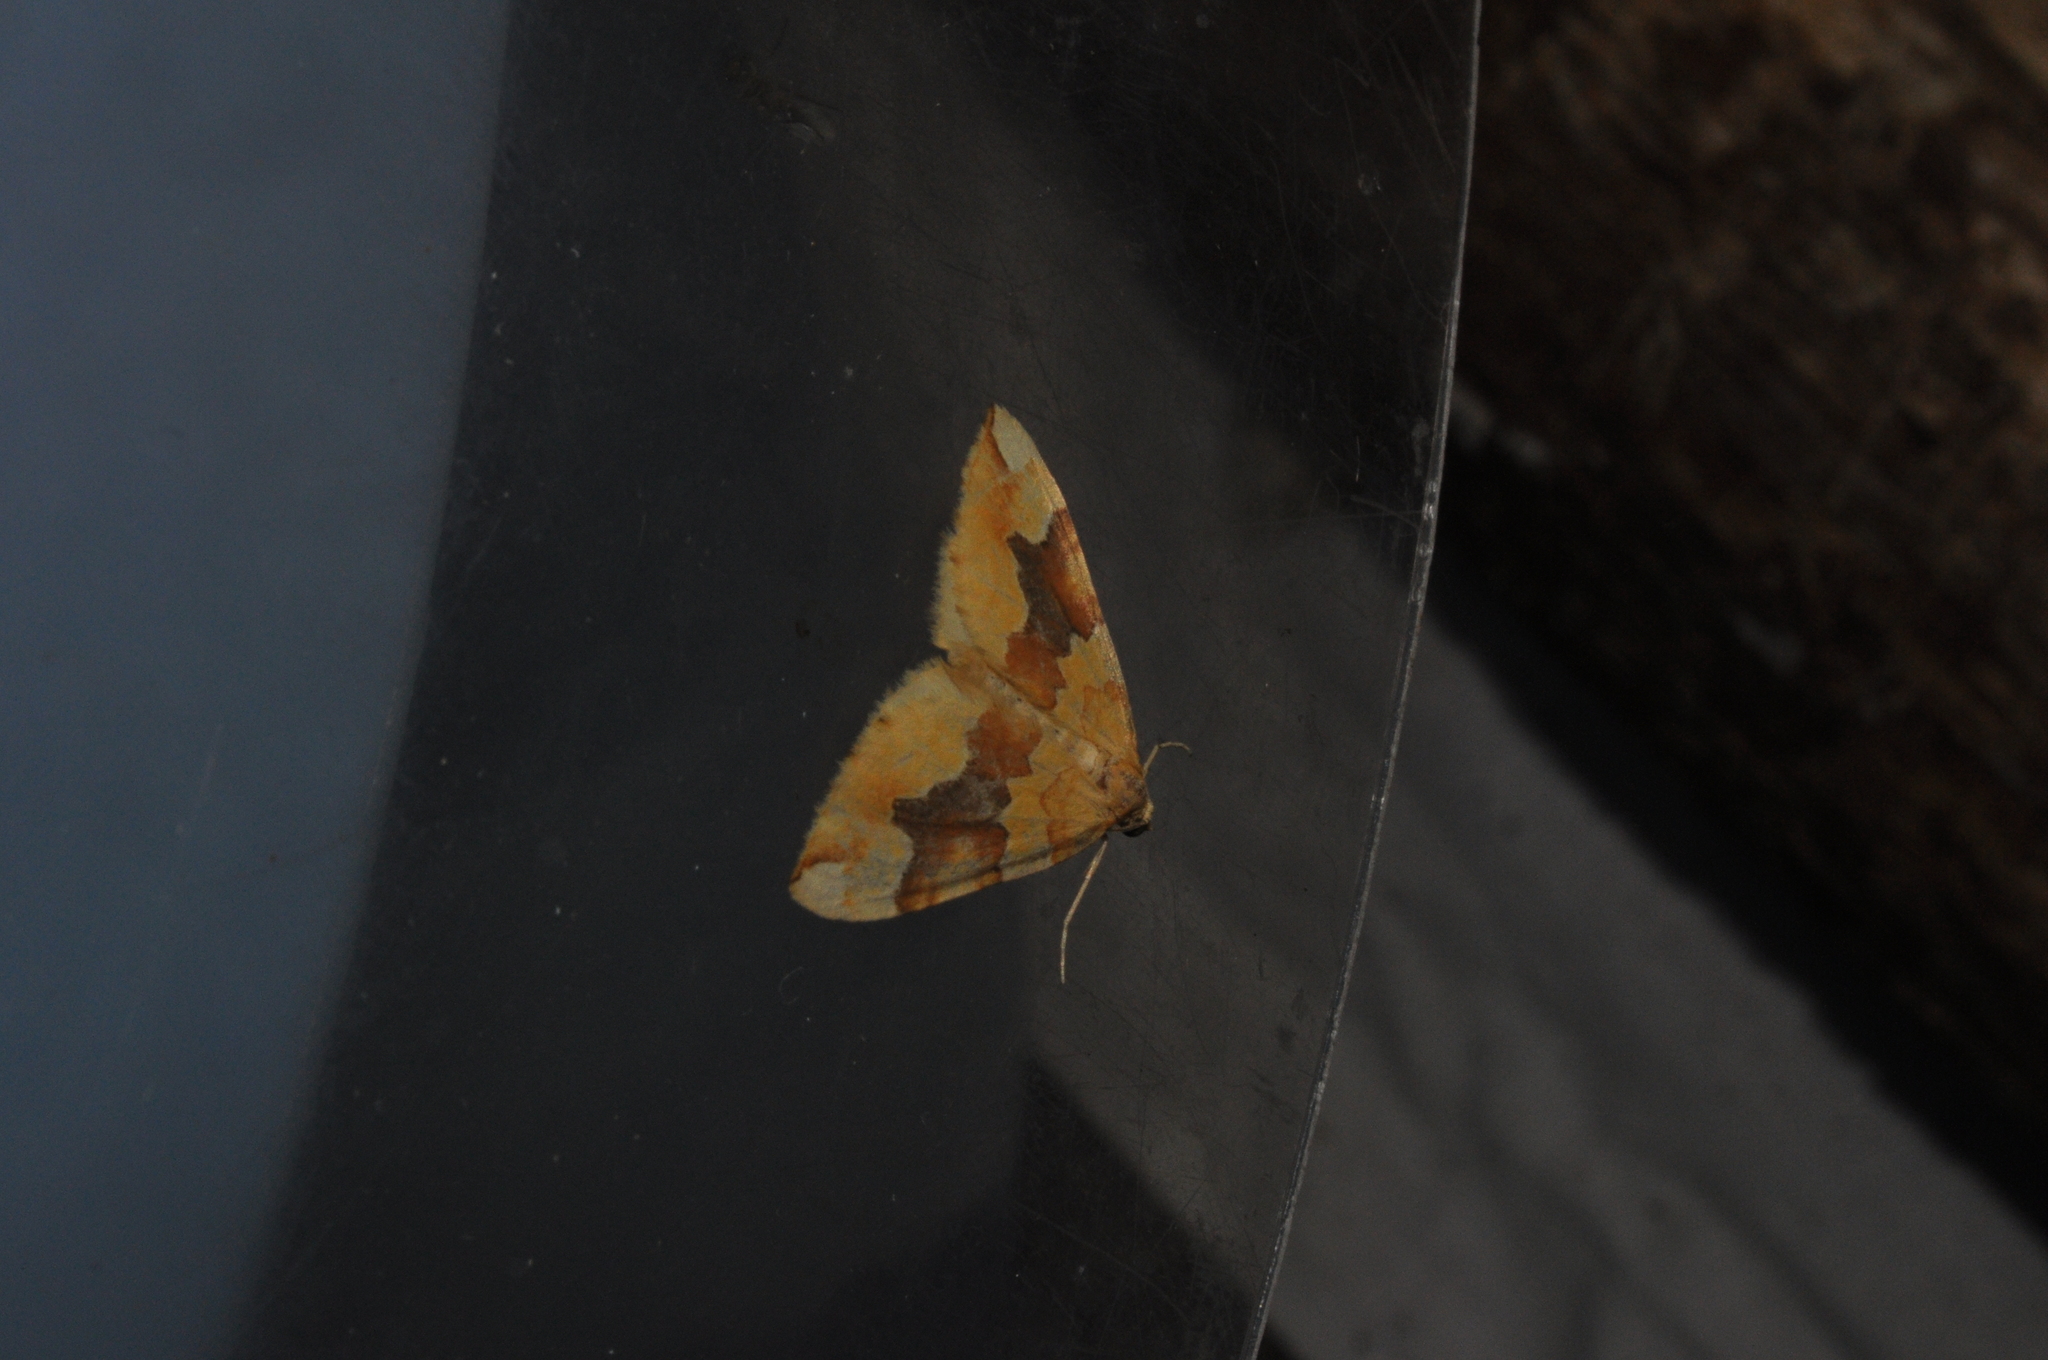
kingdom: Animalia
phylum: Arthropoda
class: Insecta
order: Lepidoptera
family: Geometridae
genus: Cidaria
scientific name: Cidaria fulvata
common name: Barred yellow
